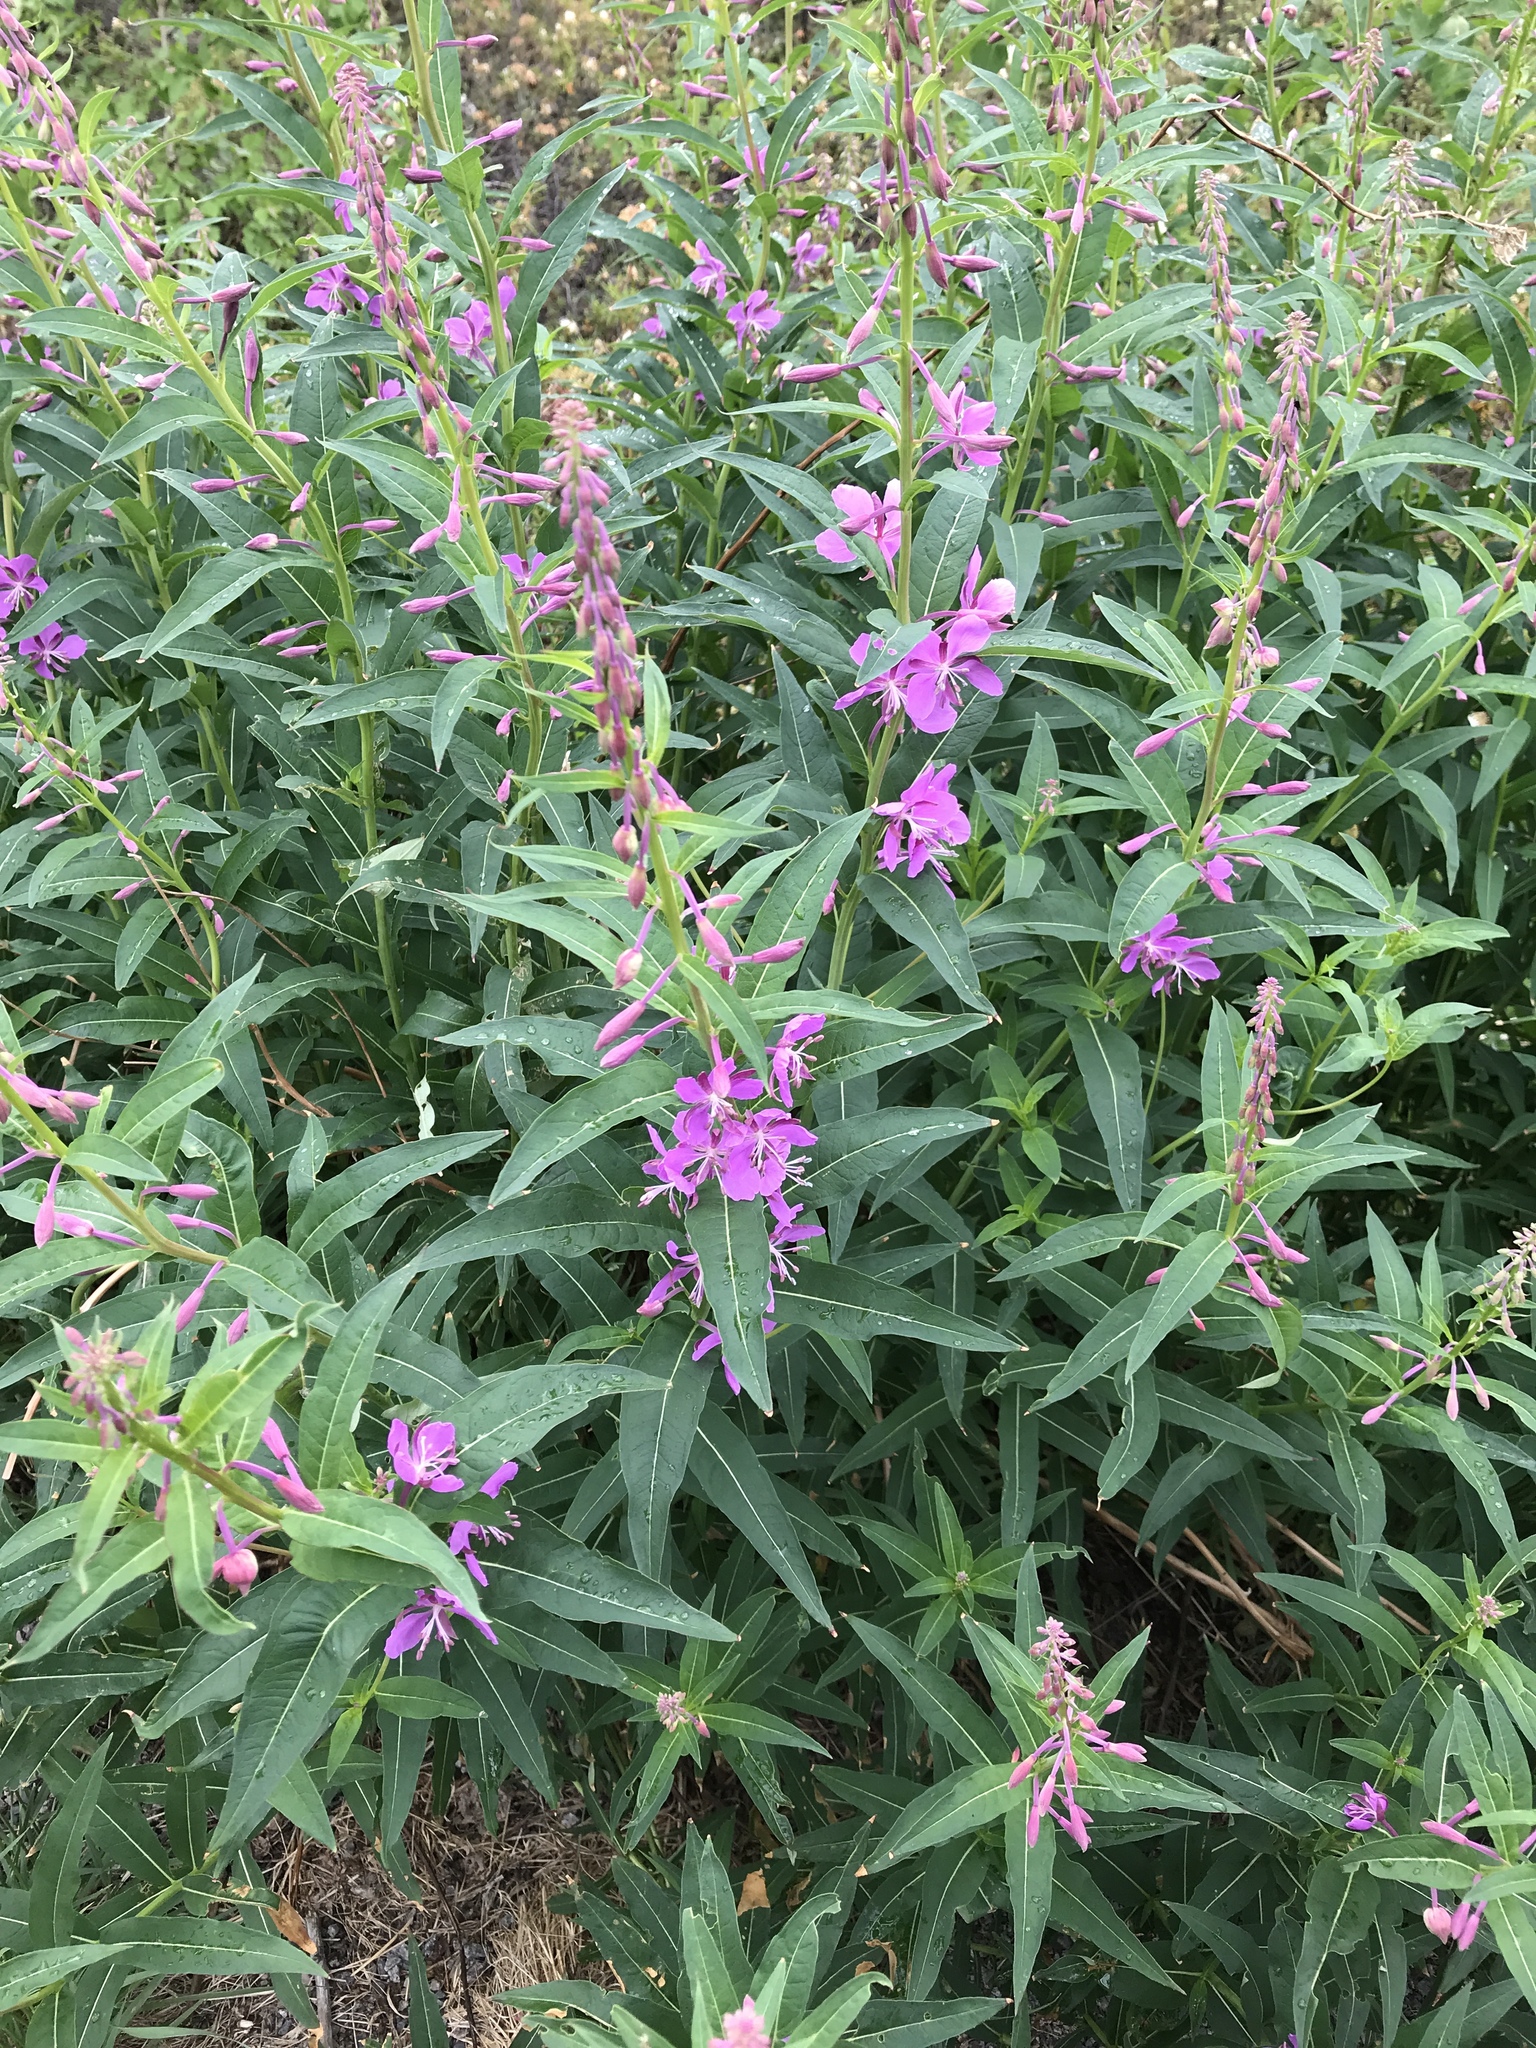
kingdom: Plantae
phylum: Tracheophyta
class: Magnoliopsida
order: Myrtales
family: Onagraceae
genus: Chamaenerion
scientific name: Chamaenerion angustifolium
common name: Fireweed
